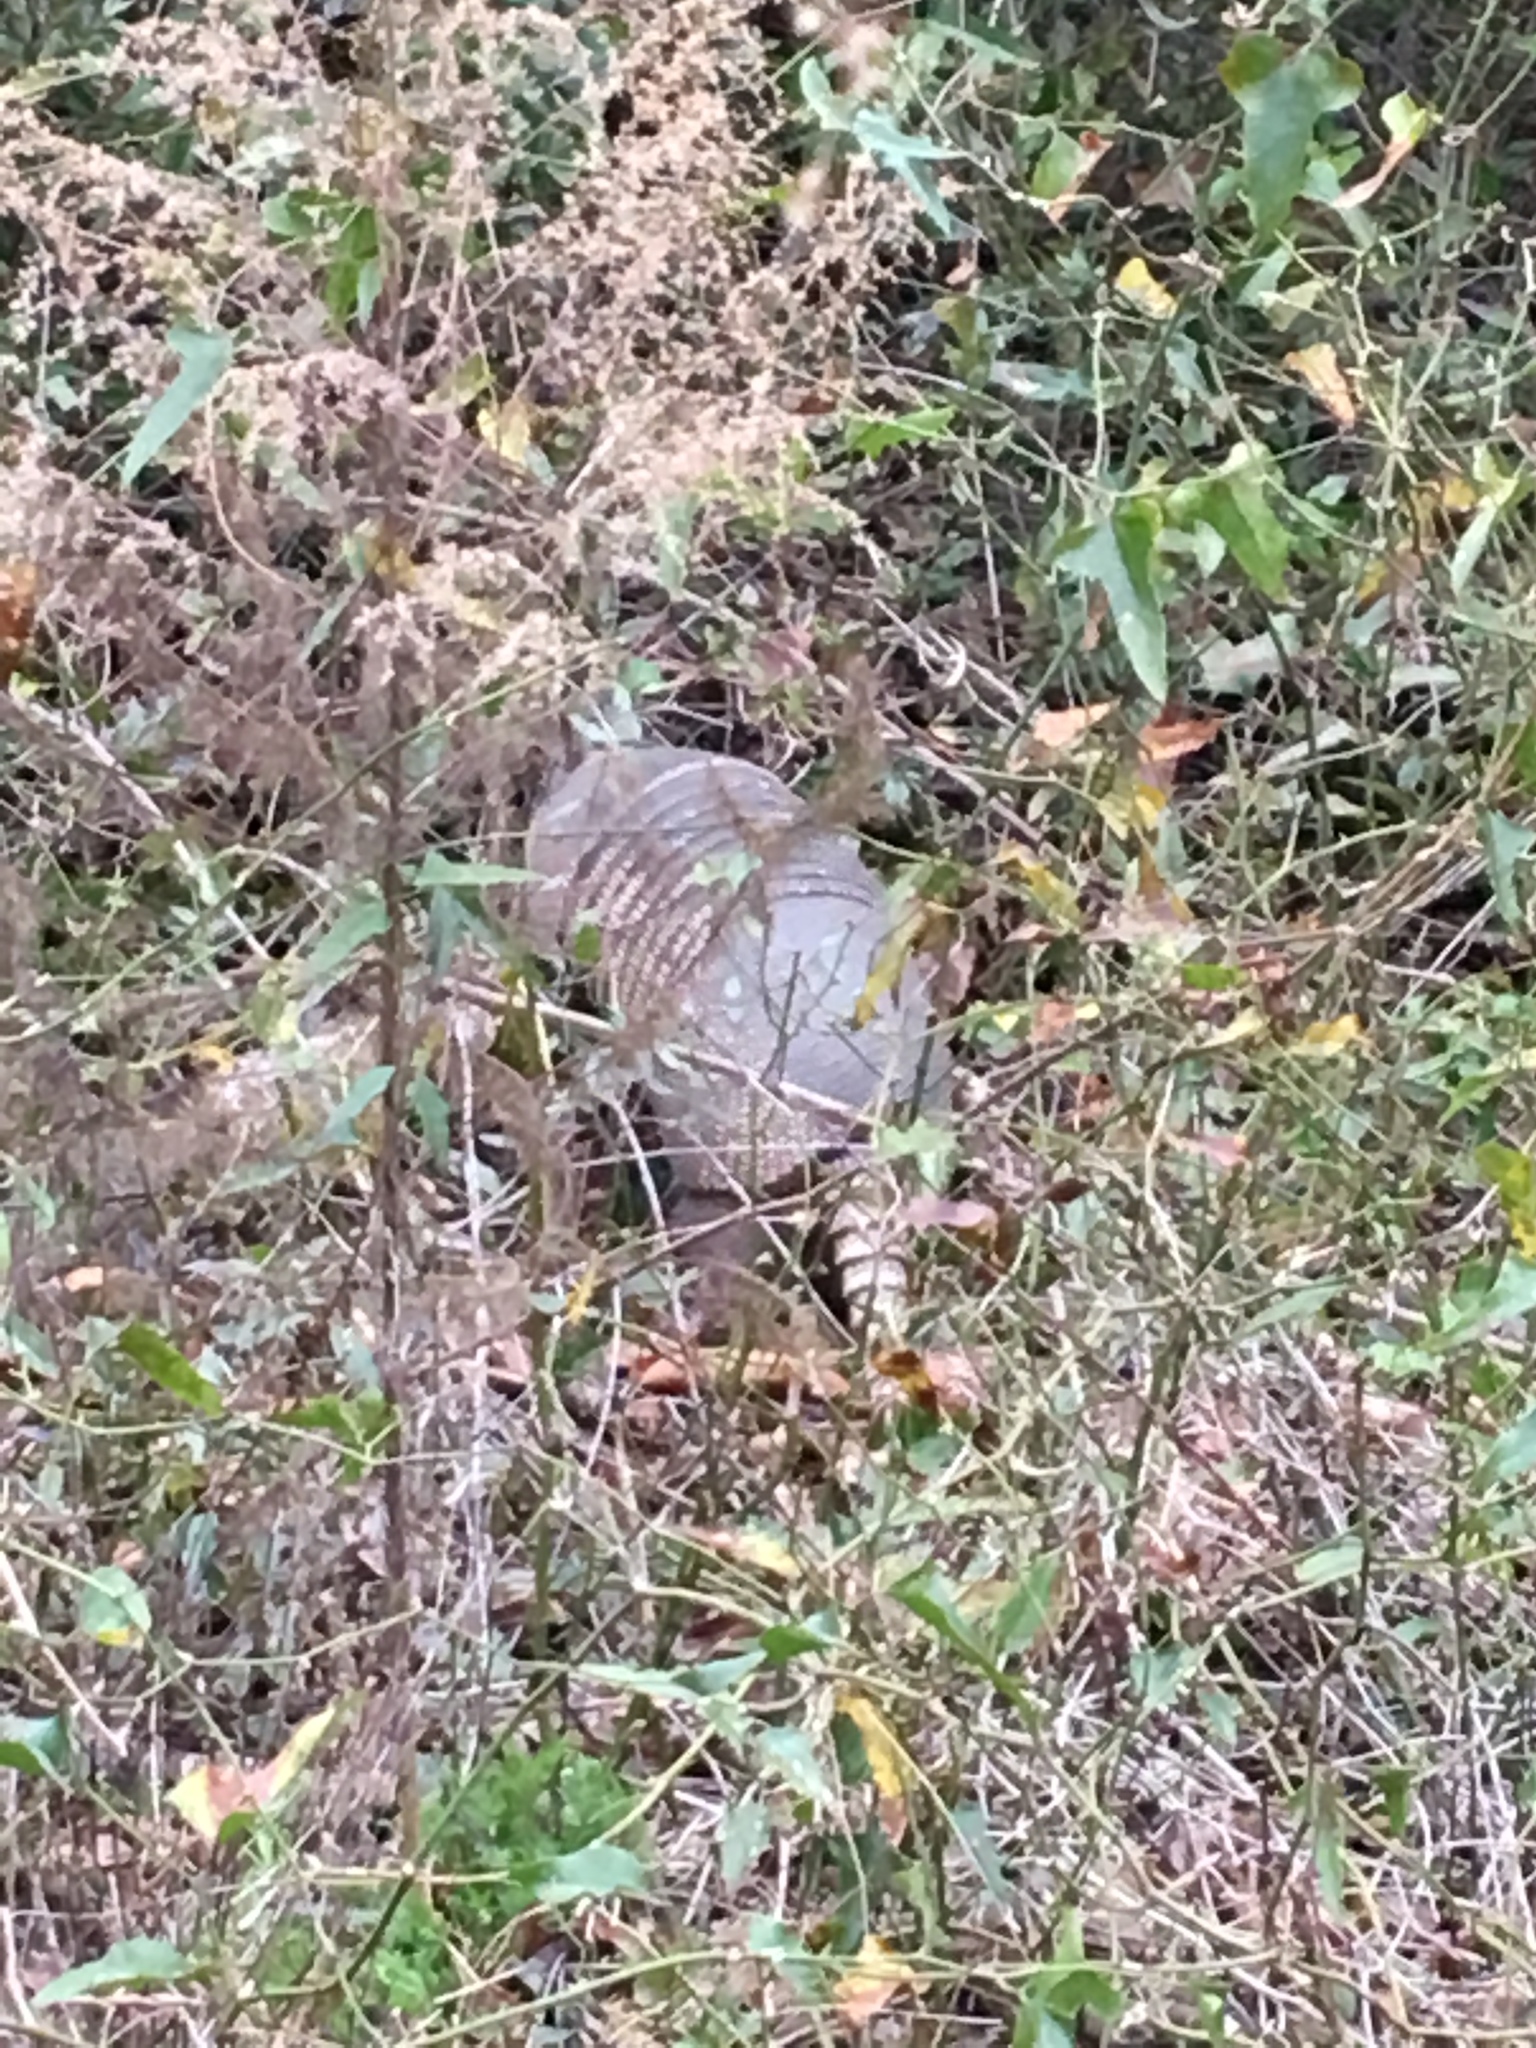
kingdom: Animalia
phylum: Chordata
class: Mammalia
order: Cingulata
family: Dasypodidae
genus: Dasypus
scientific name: Dasypus novemcinctus
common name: Nine-banded armadillo
